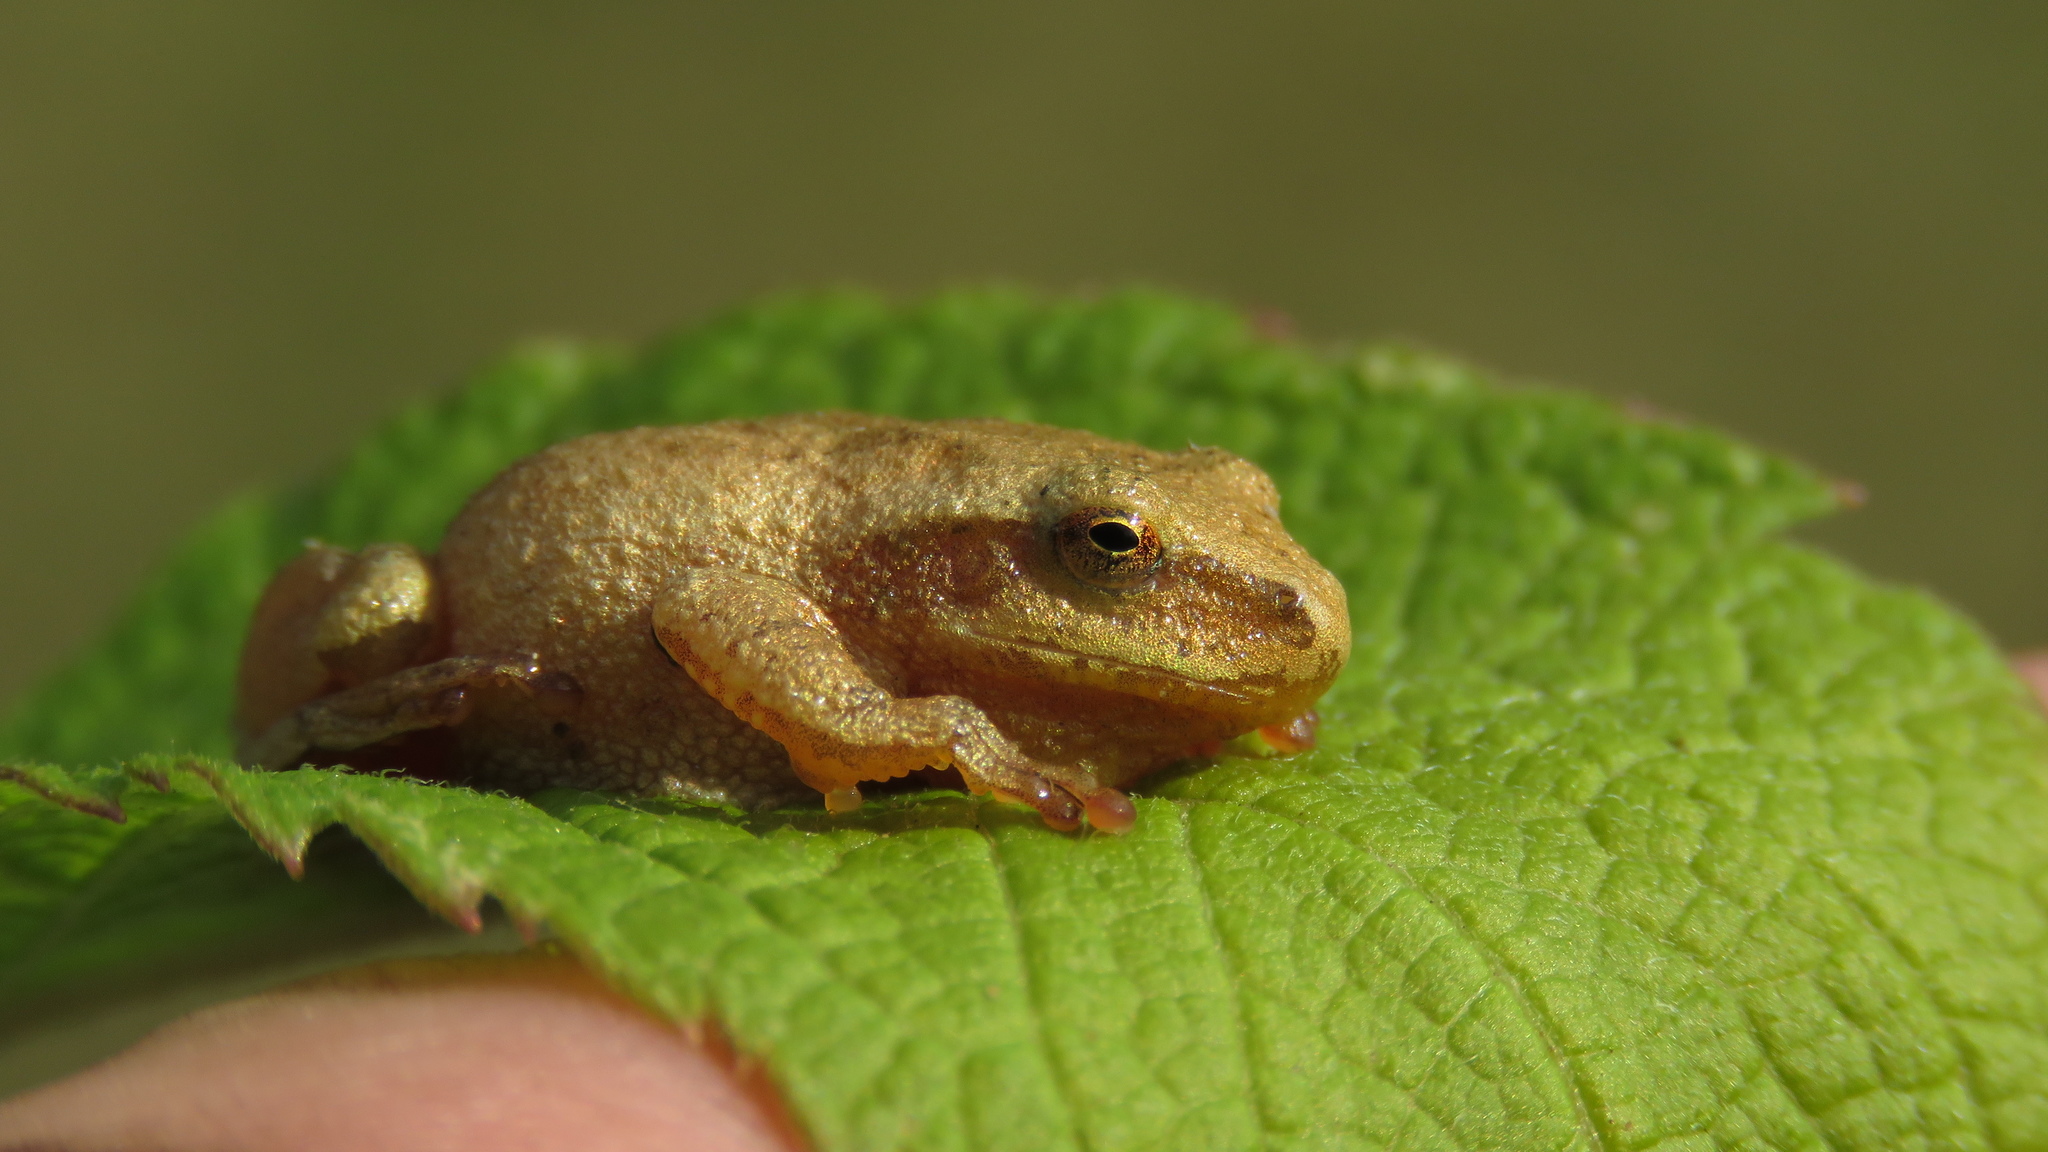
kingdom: Animalia
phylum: Chordata
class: Amphibia
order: Anura
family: Hylidae
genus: Pseudacris
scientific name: Pseudacris crucifer
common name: Spring peeper
